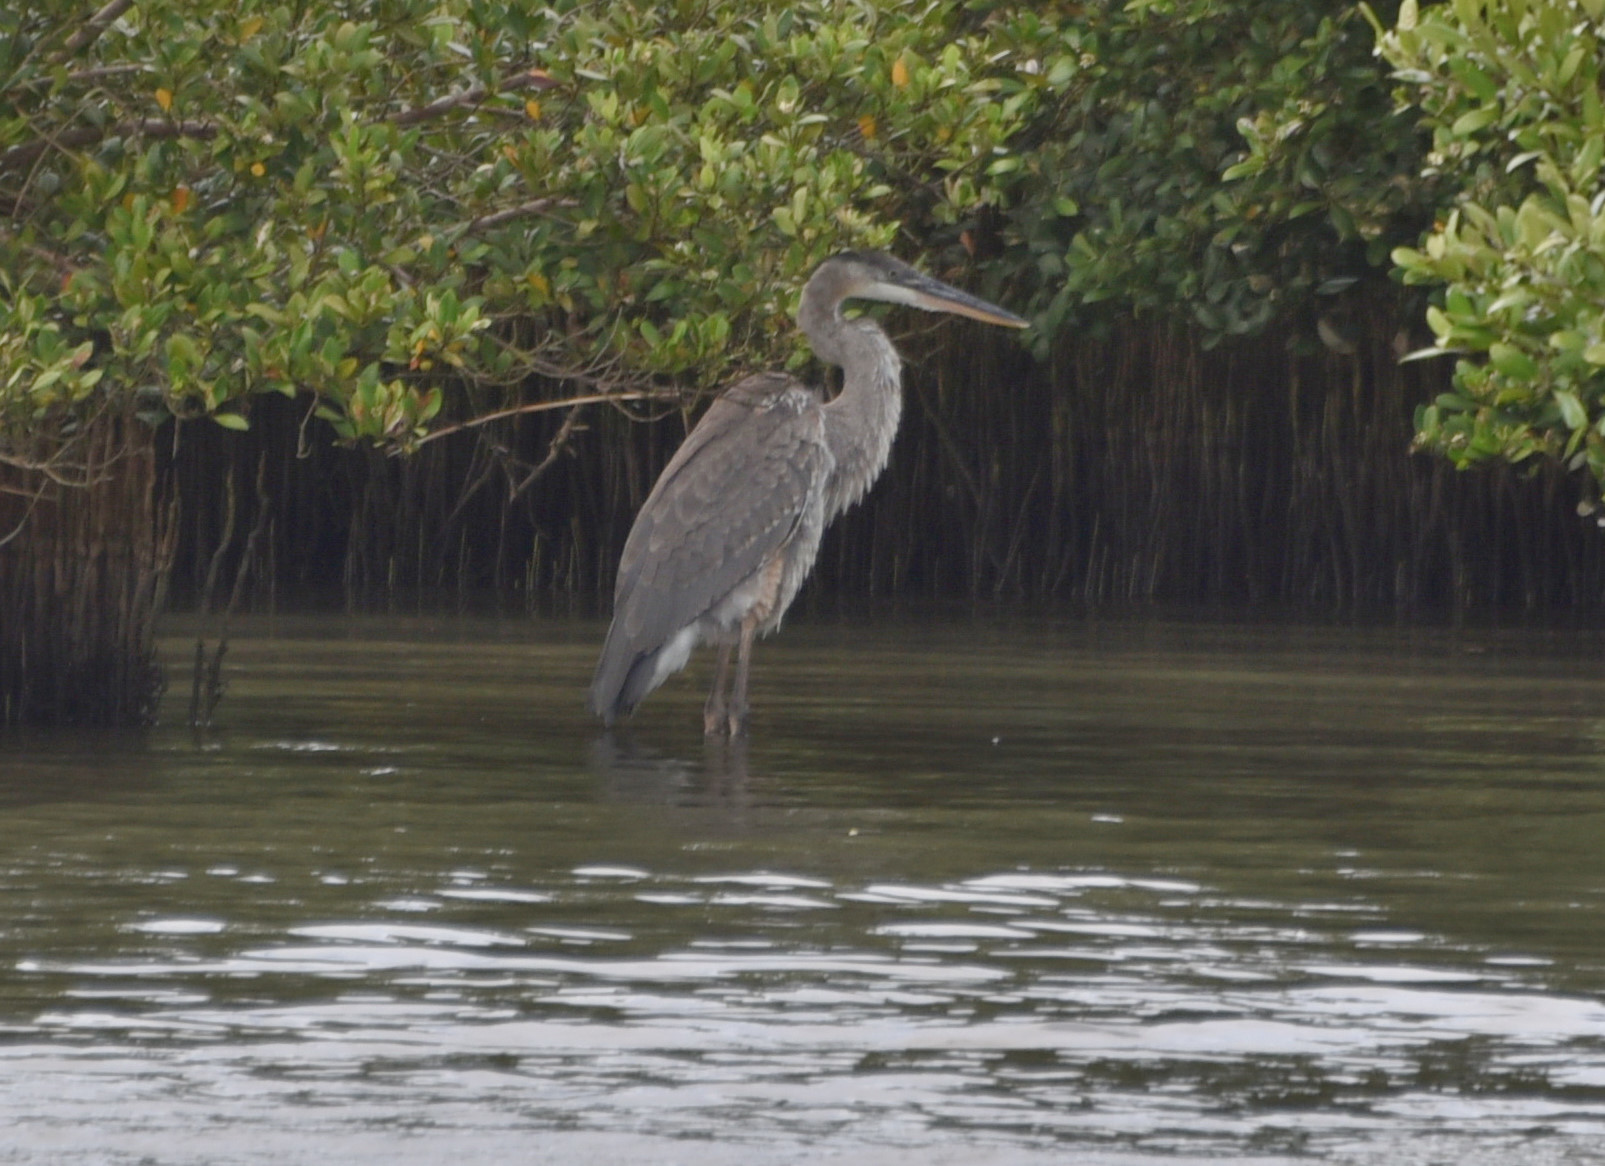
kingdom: Animalia
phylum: Chordata
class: Aves
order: Pelecaniformes
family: Ardeidae
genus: Ardea
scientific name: Ardea herodias
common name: Great blue heron
